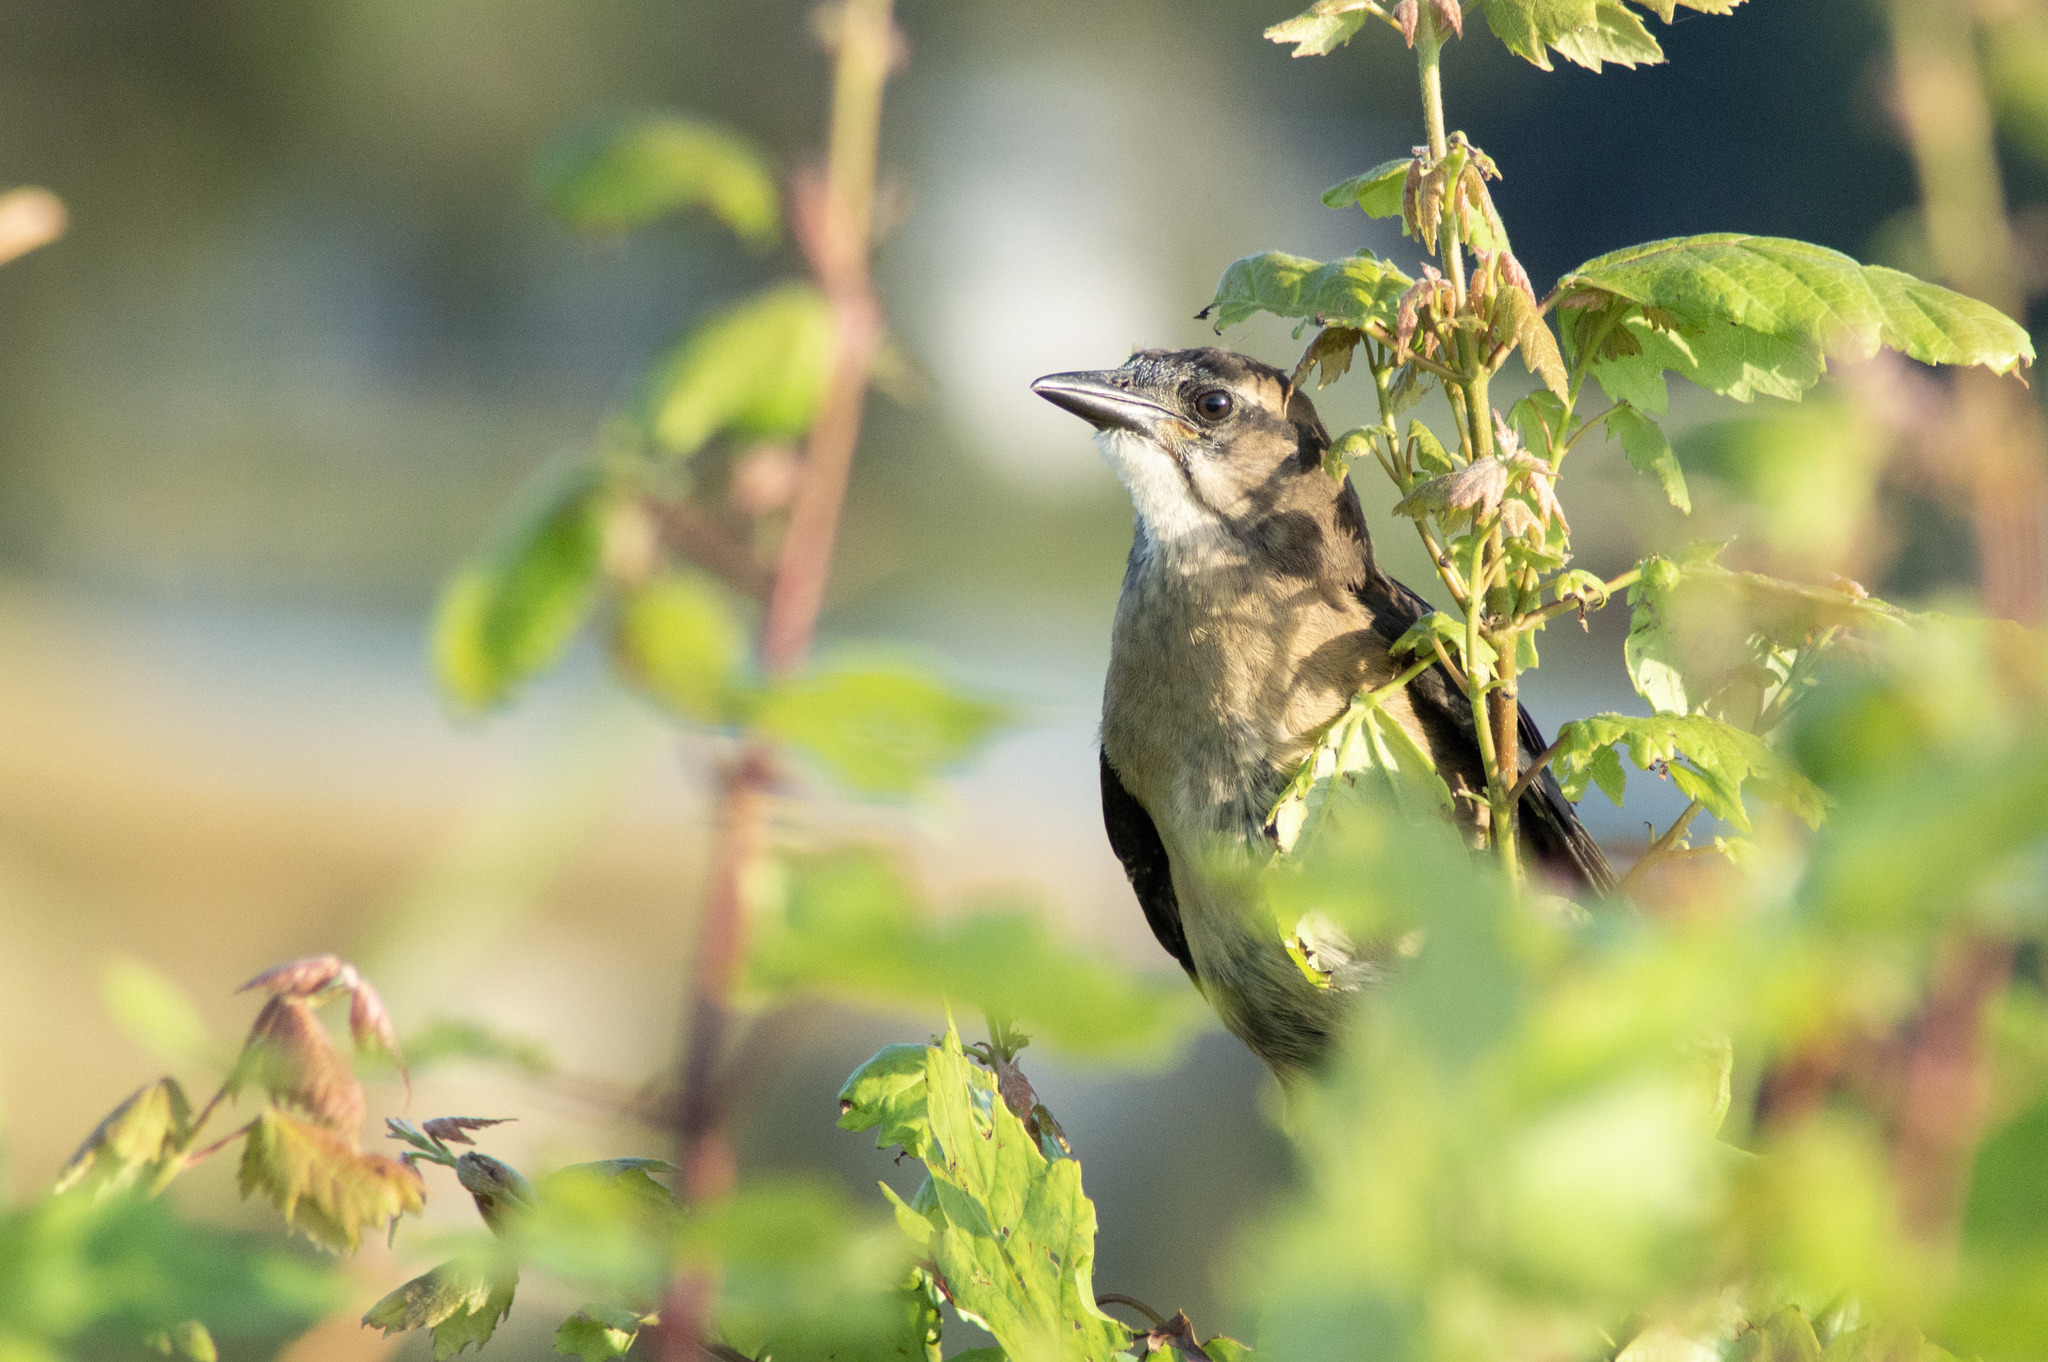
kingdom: Animalia
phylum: Chordata
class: Aves
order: Passeriformes
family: Icteridae
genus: Quiscalus
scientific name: Quiscalus major
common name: Boat-tailed grackle
